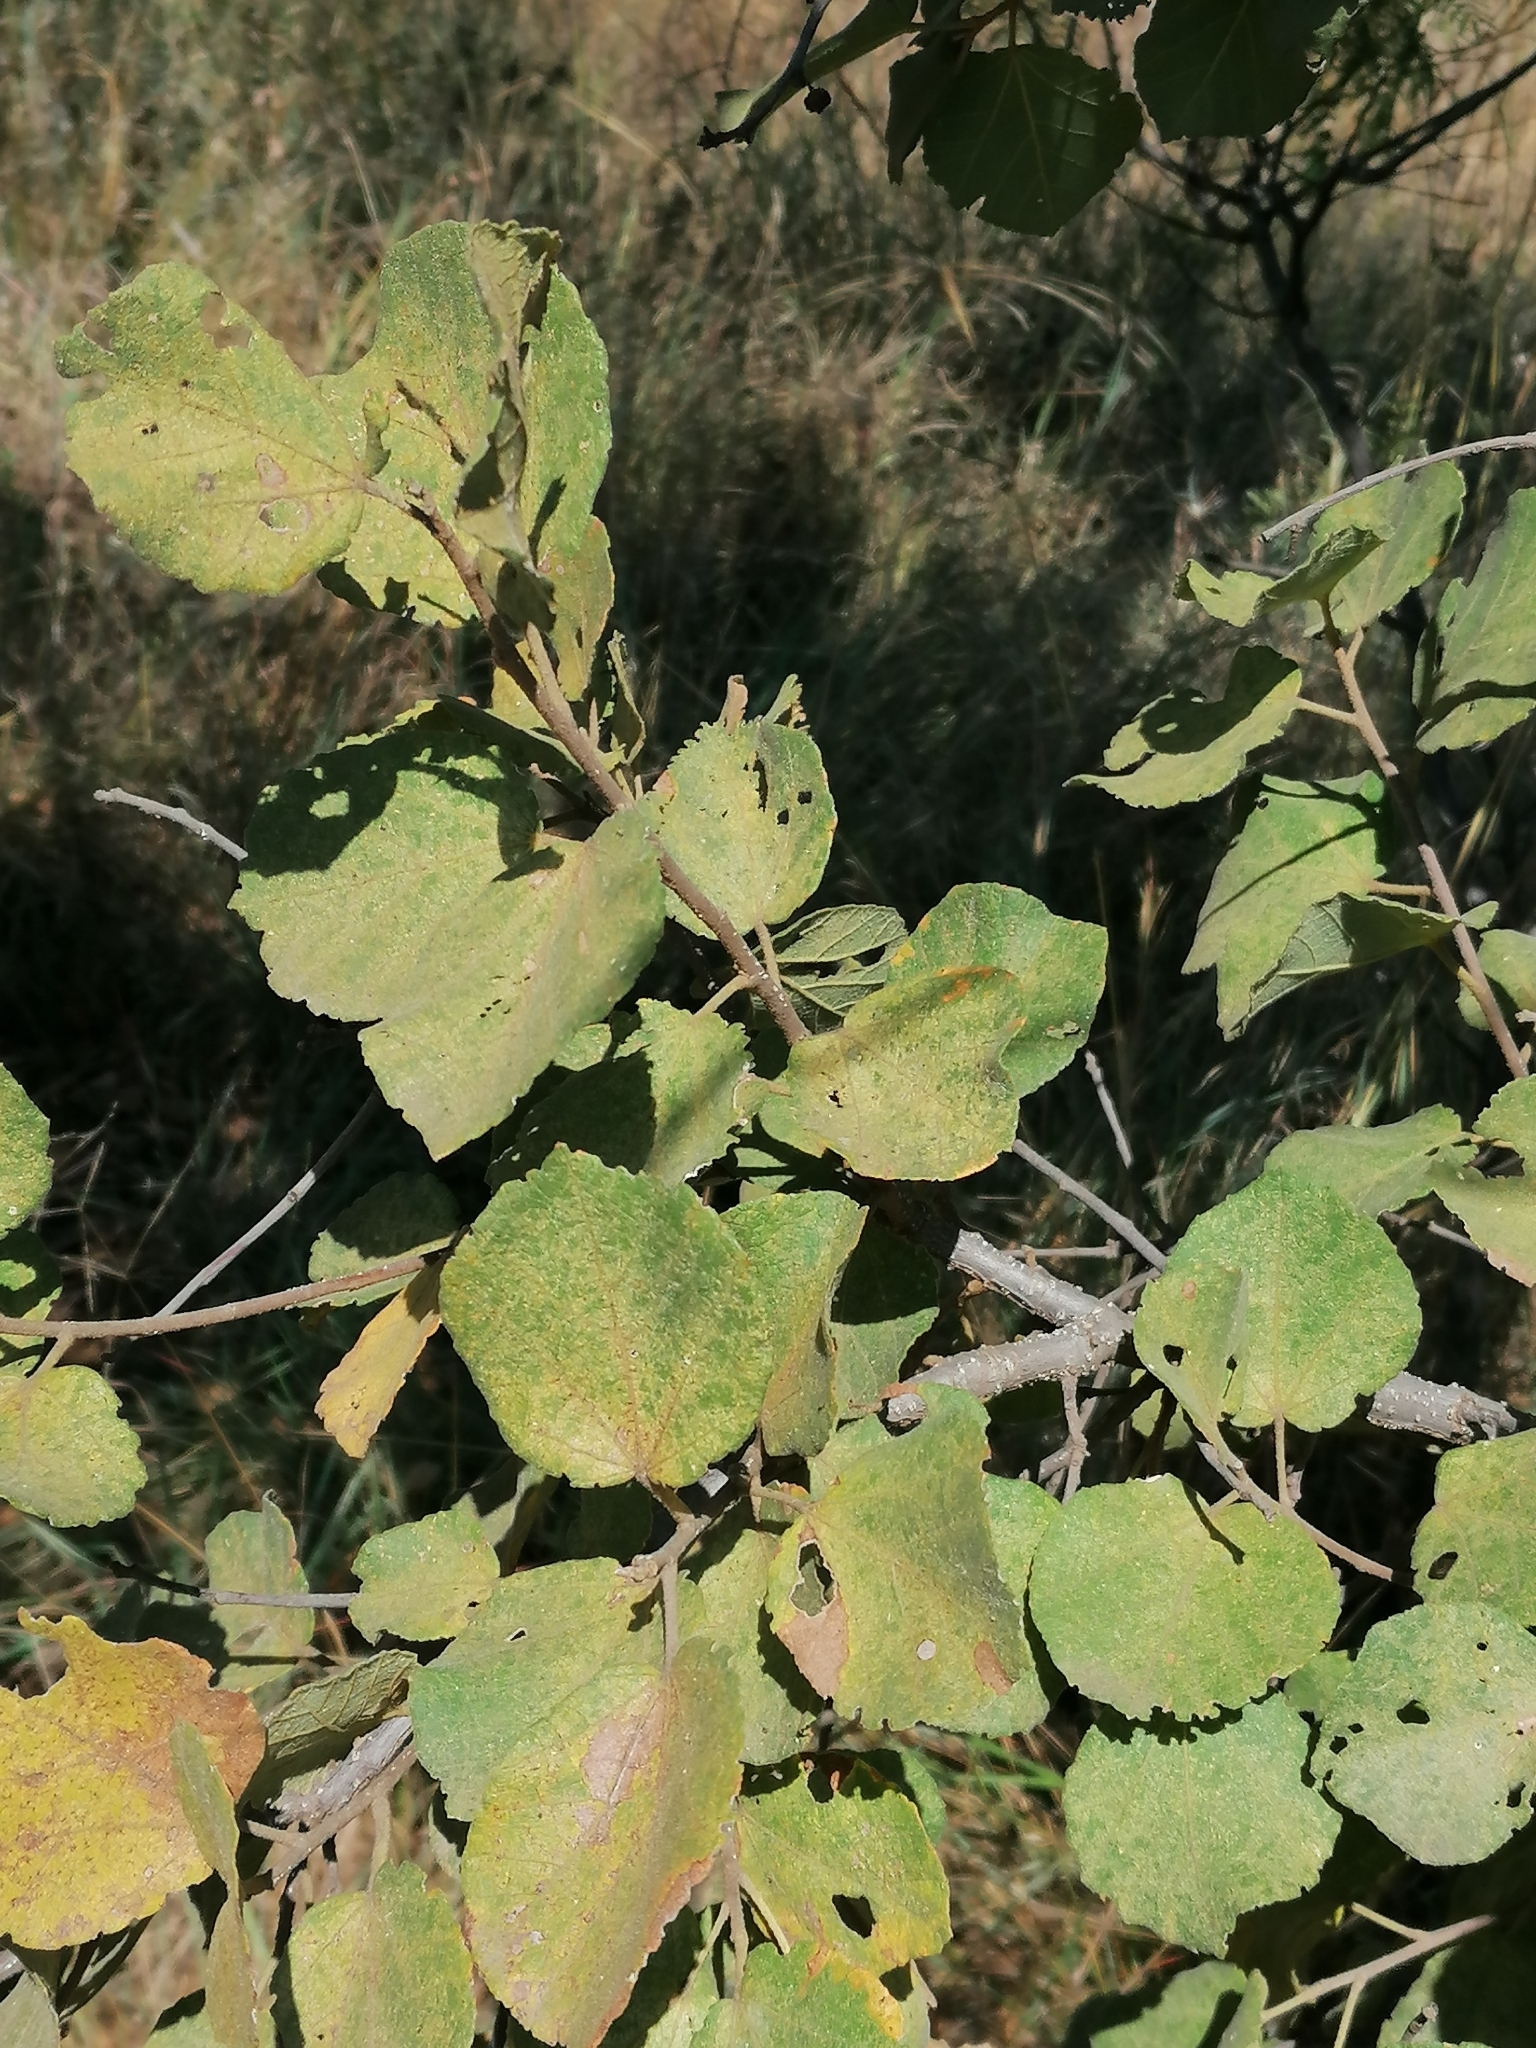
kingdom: Plantae
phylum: Tracheophyta
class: Magnoliopsida
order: Malvales
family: Malvaceae
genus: Dombeya
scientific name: Dombeya rotundifolia
